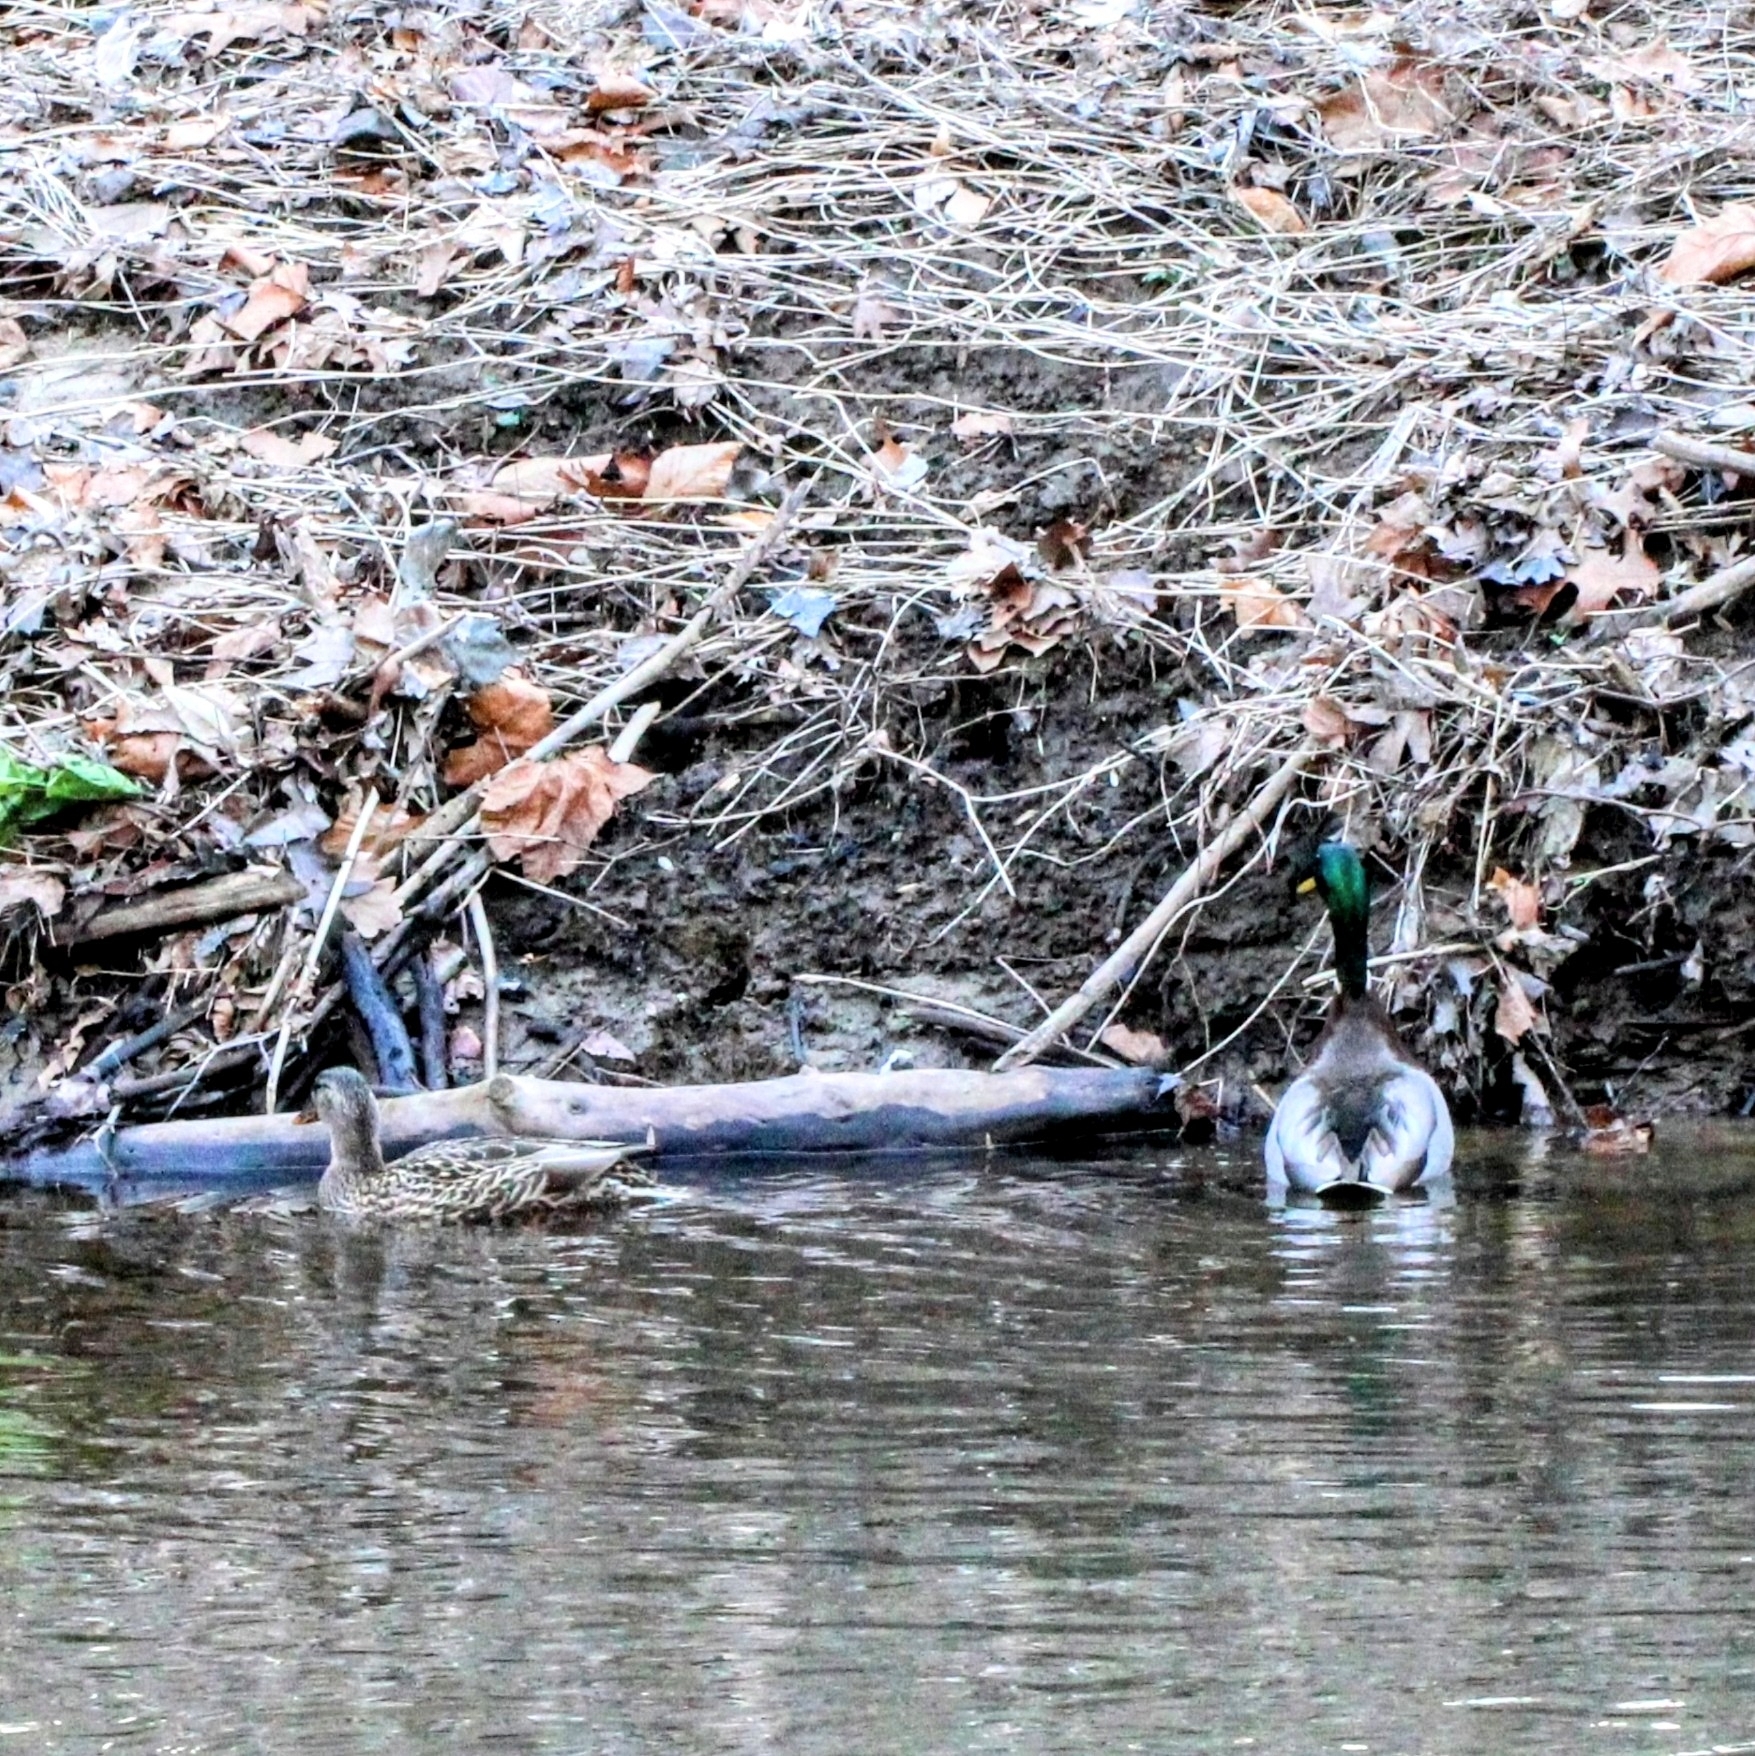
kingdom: Animalia
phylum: Chordata
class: Aves
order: Anseriformes
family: Anatidae
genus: Anas
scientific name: Anas platyrhynchos
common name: Mallard
